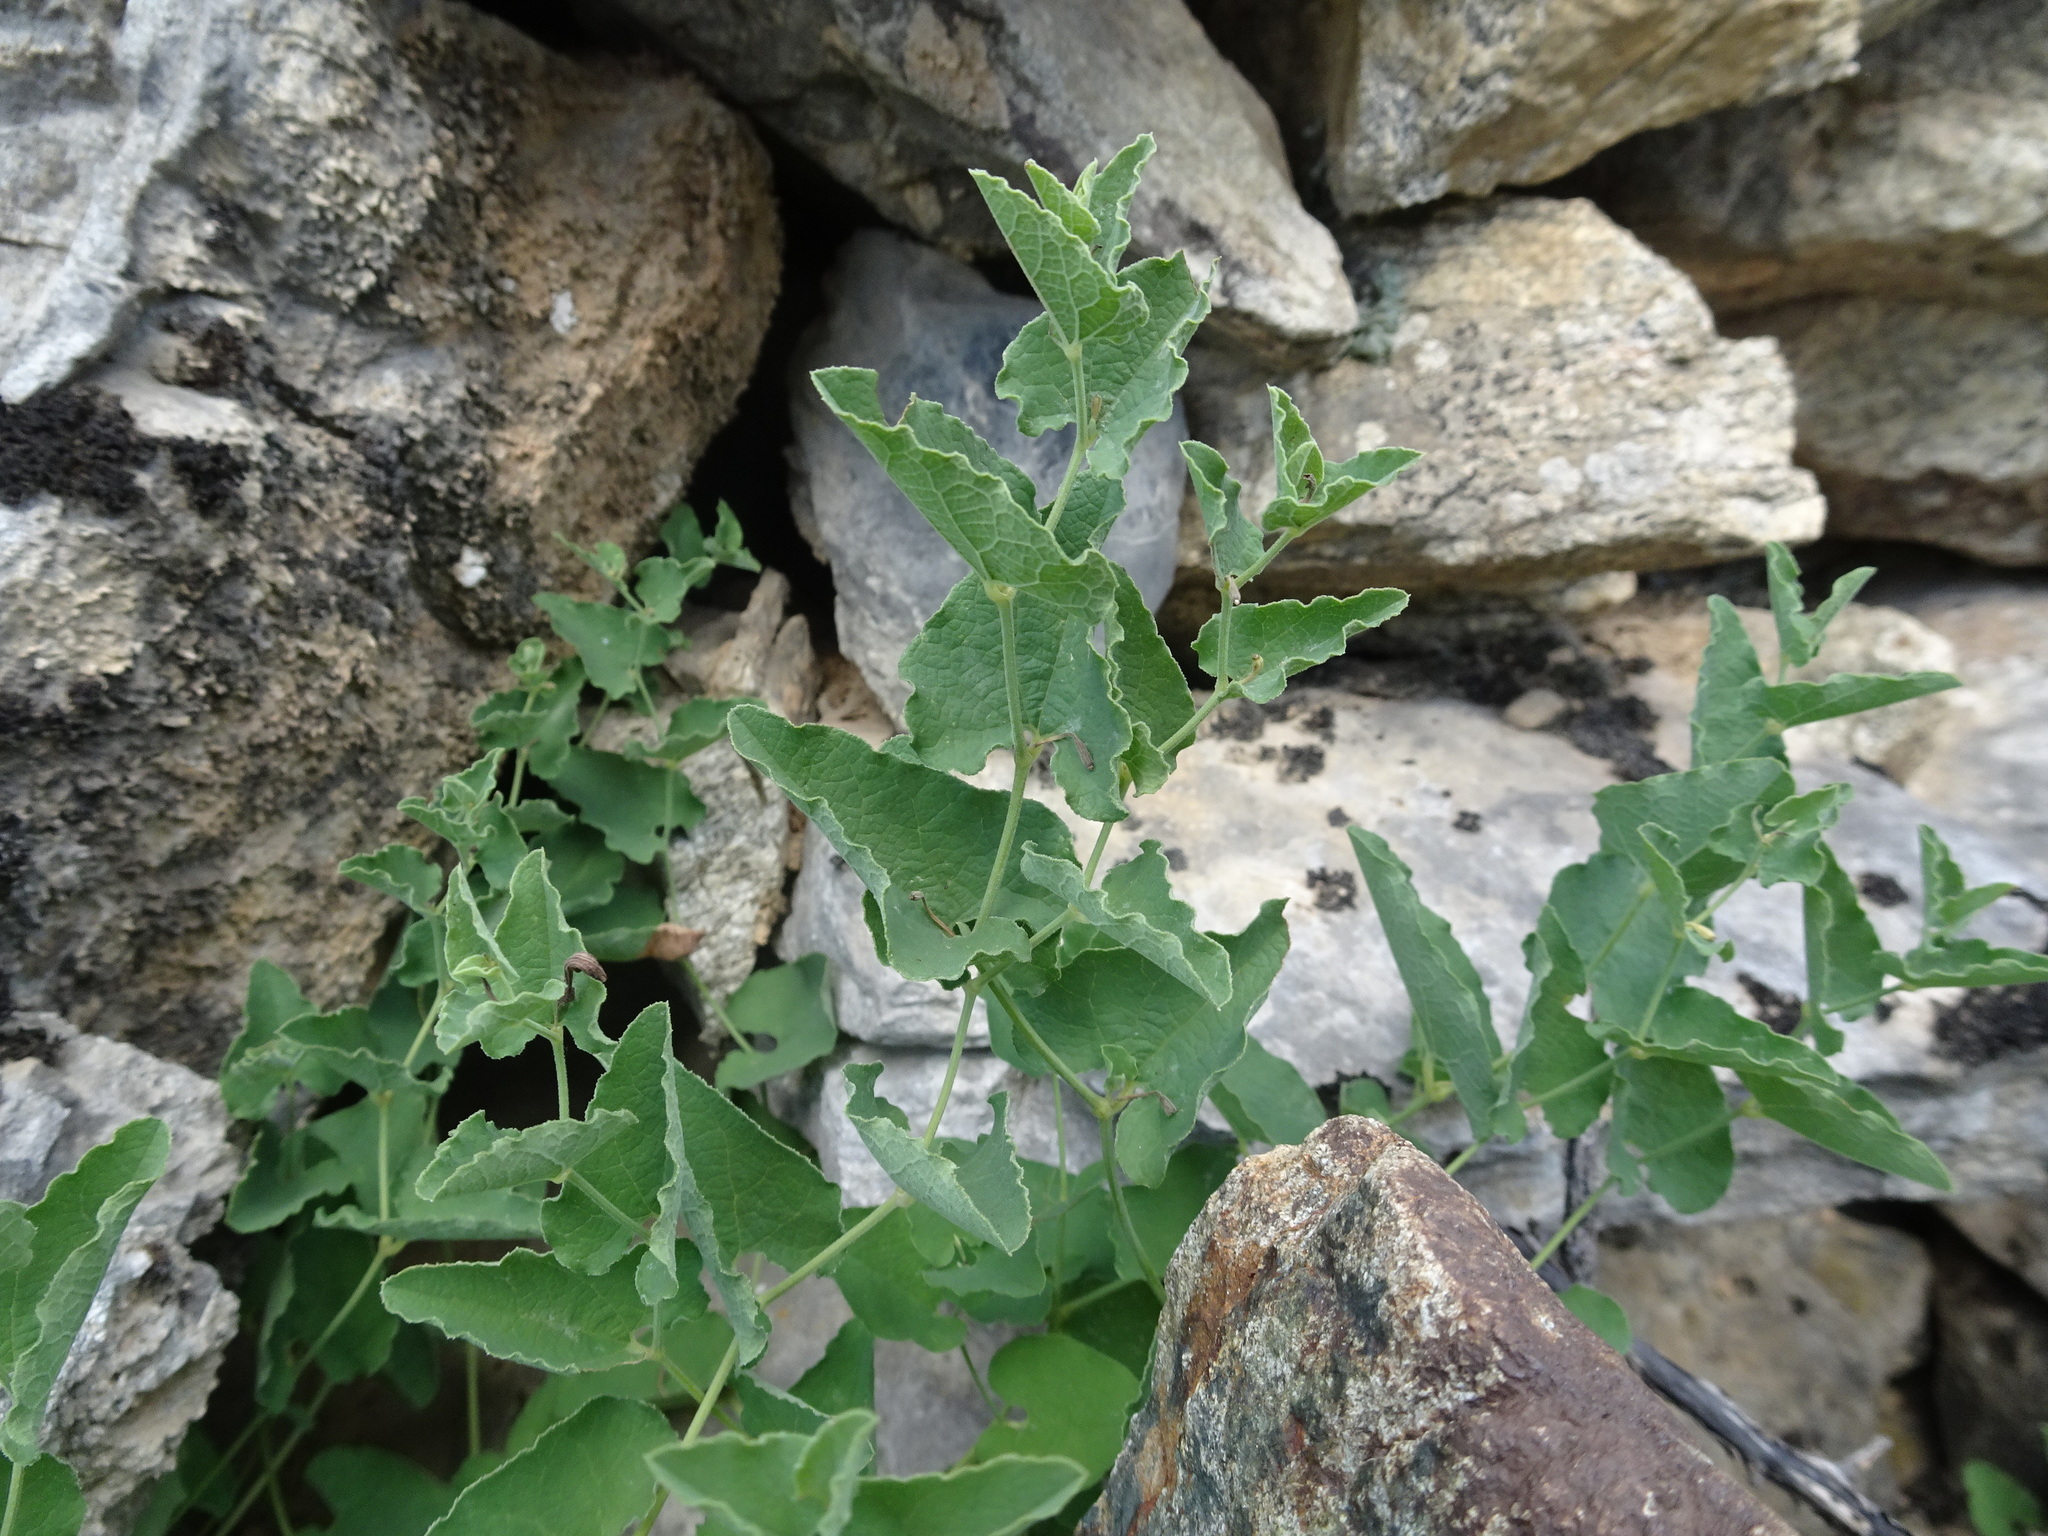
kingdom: Plantae
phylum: Tracheophyta
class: Magnoliopsida
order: Piperales
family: Aristolochiaceae
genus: Aristolochia
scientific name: Aristolochia pistolochia
